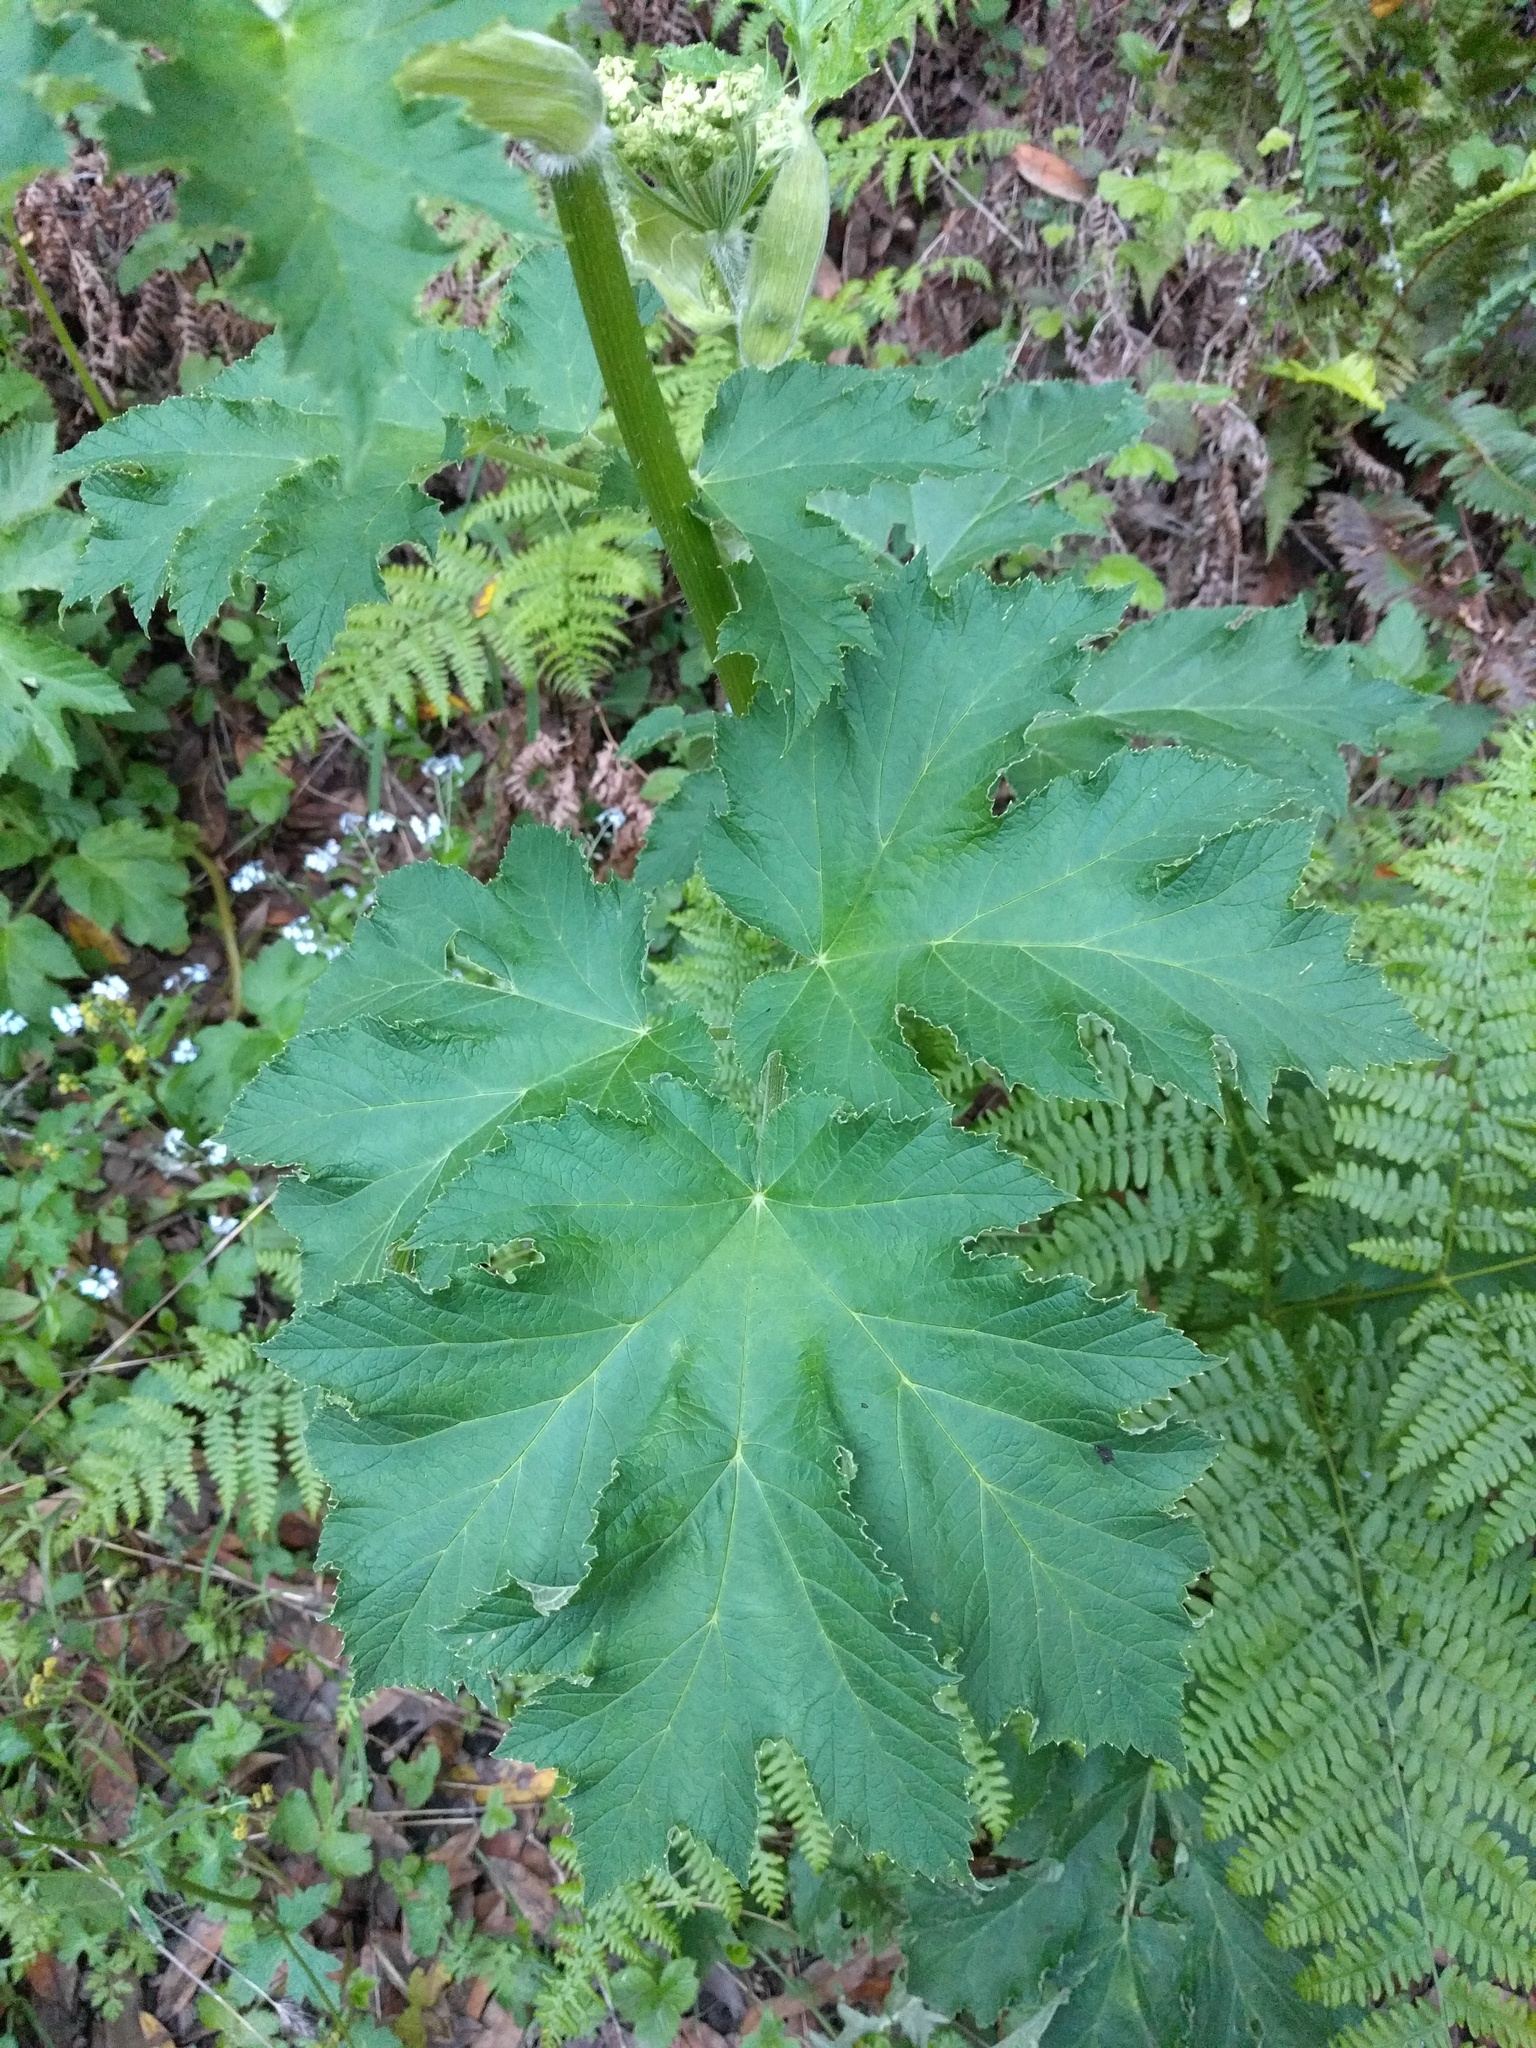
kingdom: Plantae
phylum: Tracheophyta
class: Magnoliopsida
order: Apiales
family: Apiaceae
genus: Heracleum
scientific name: Heracleum maximum
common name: American cow parsnip
